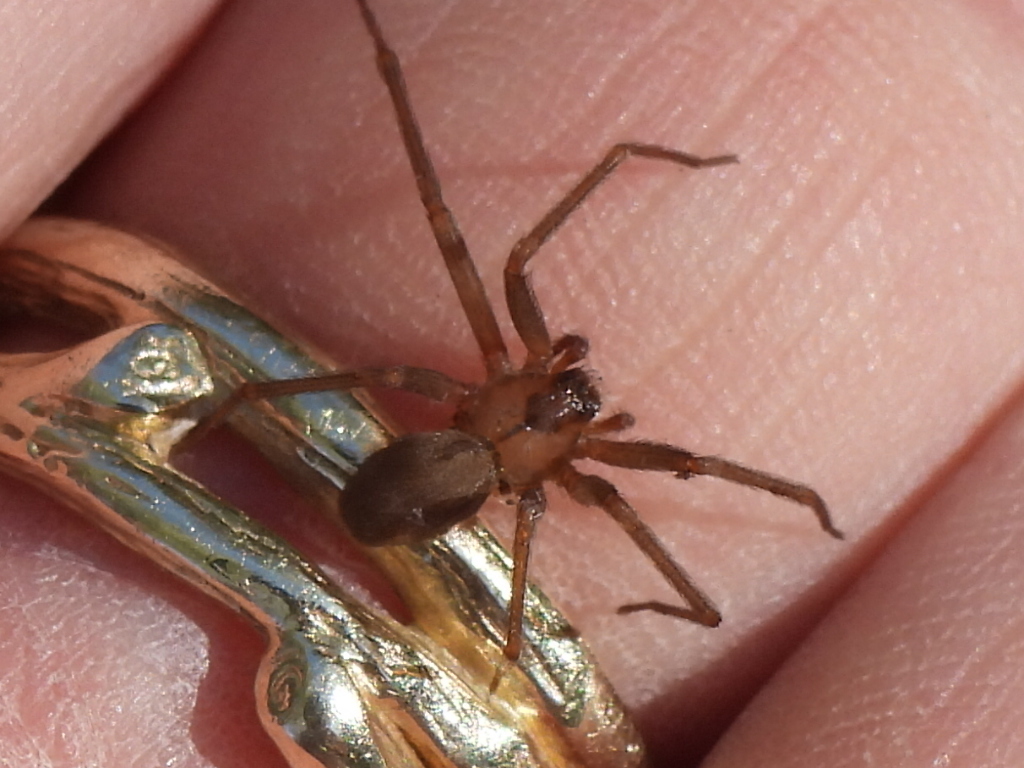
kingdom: Animalia
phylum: Arthropoda
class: Arachnida
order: Araneae
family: Sicariidae
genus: Loxosceles
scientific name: Loxosceles reclusa
